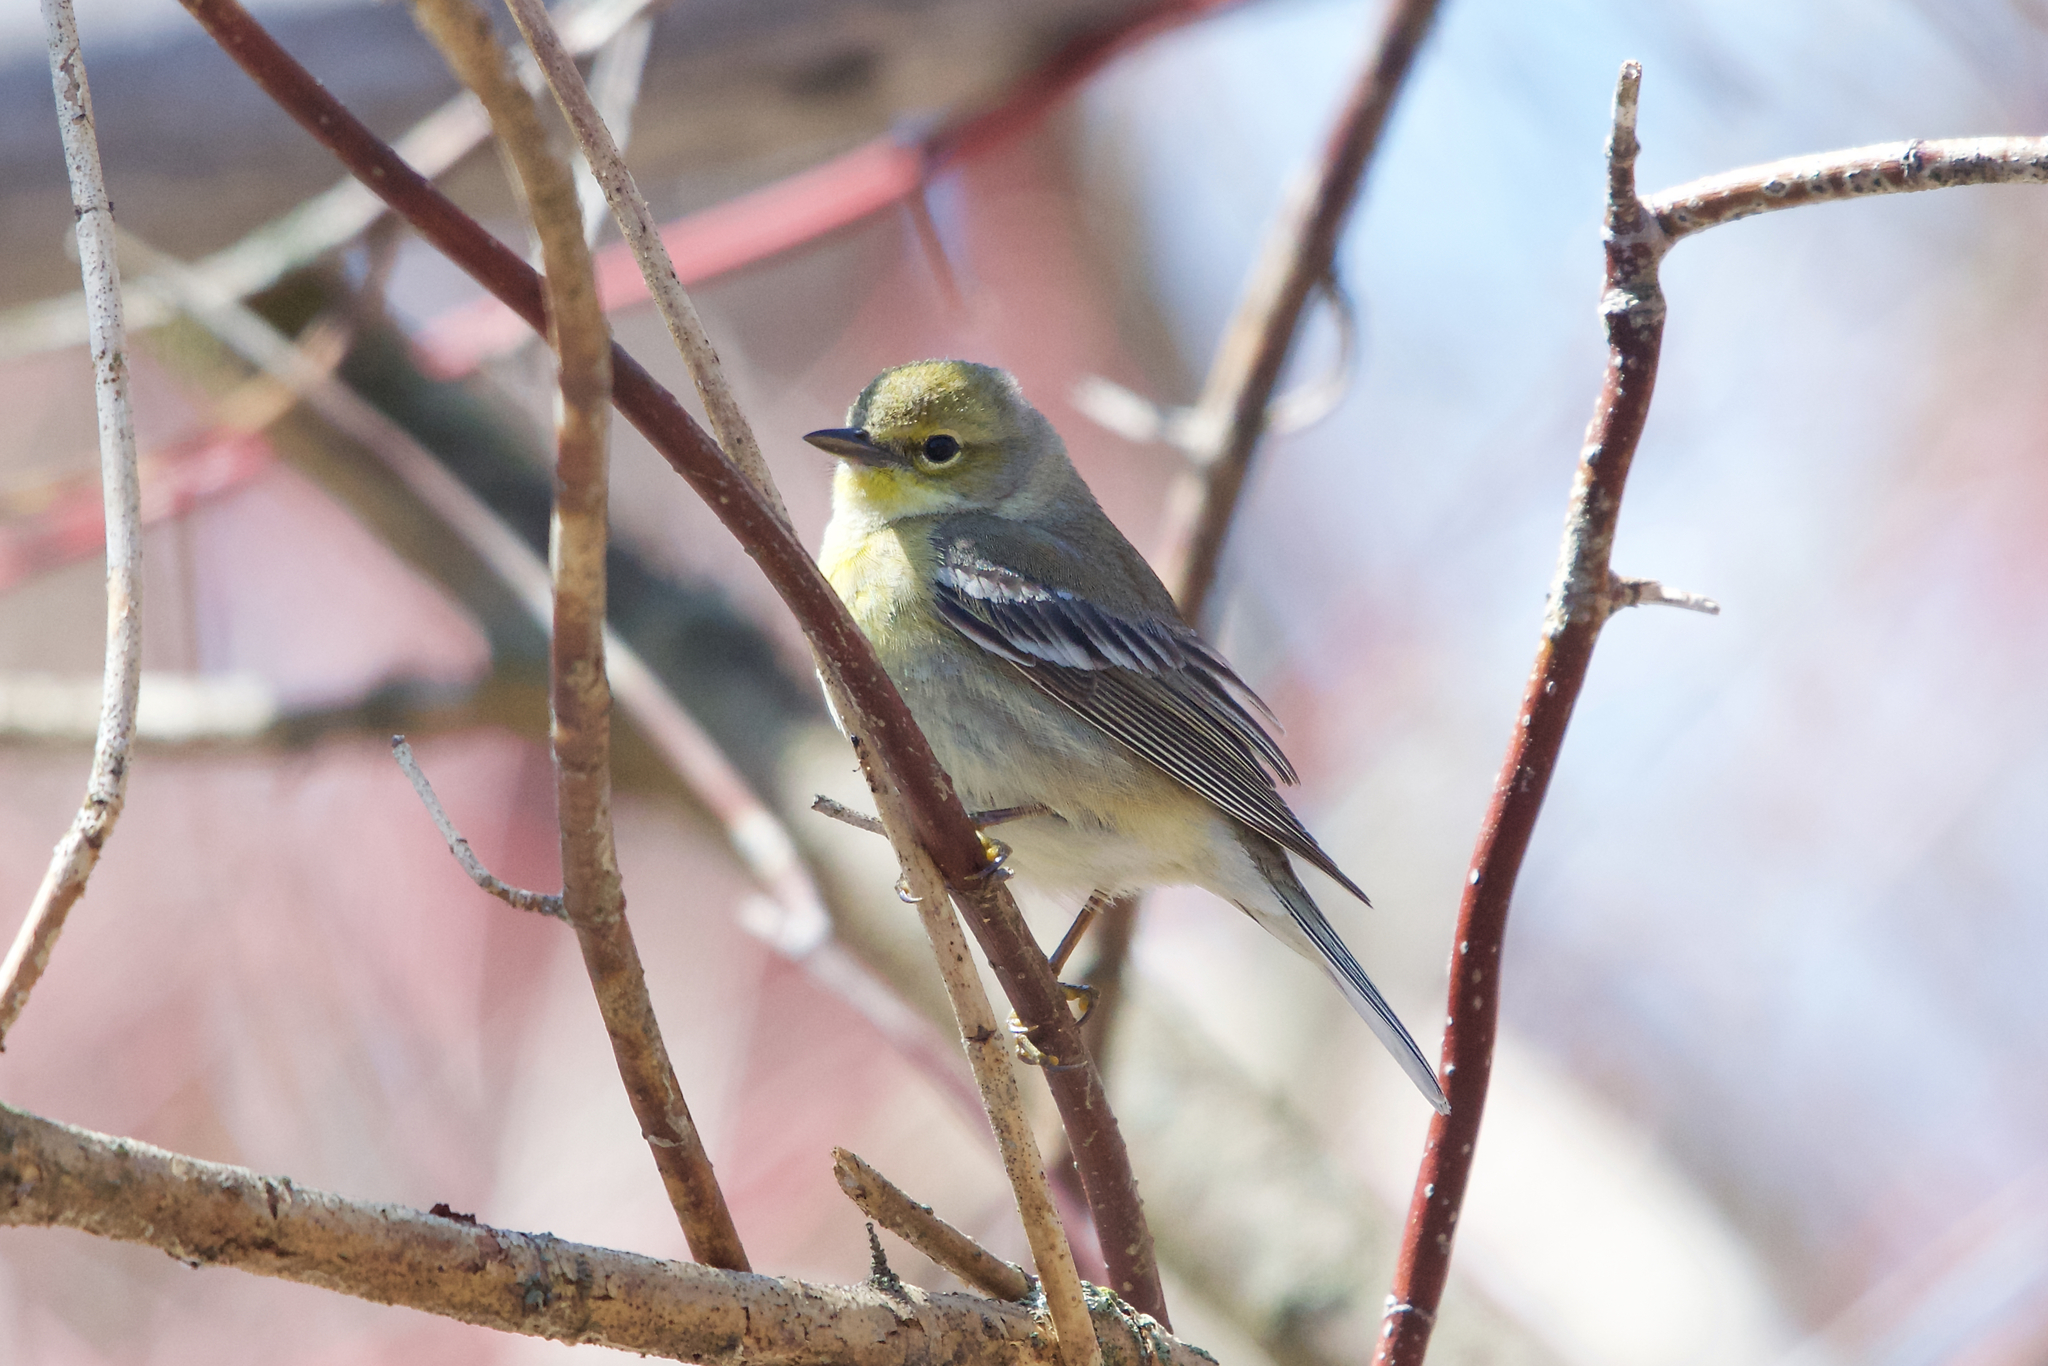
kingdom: Animalia
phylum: Chordata
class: Aves
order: Passeriformes
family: Parulidae
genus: Setophaga
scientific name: Setophaga pinus
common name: Pine warbler
